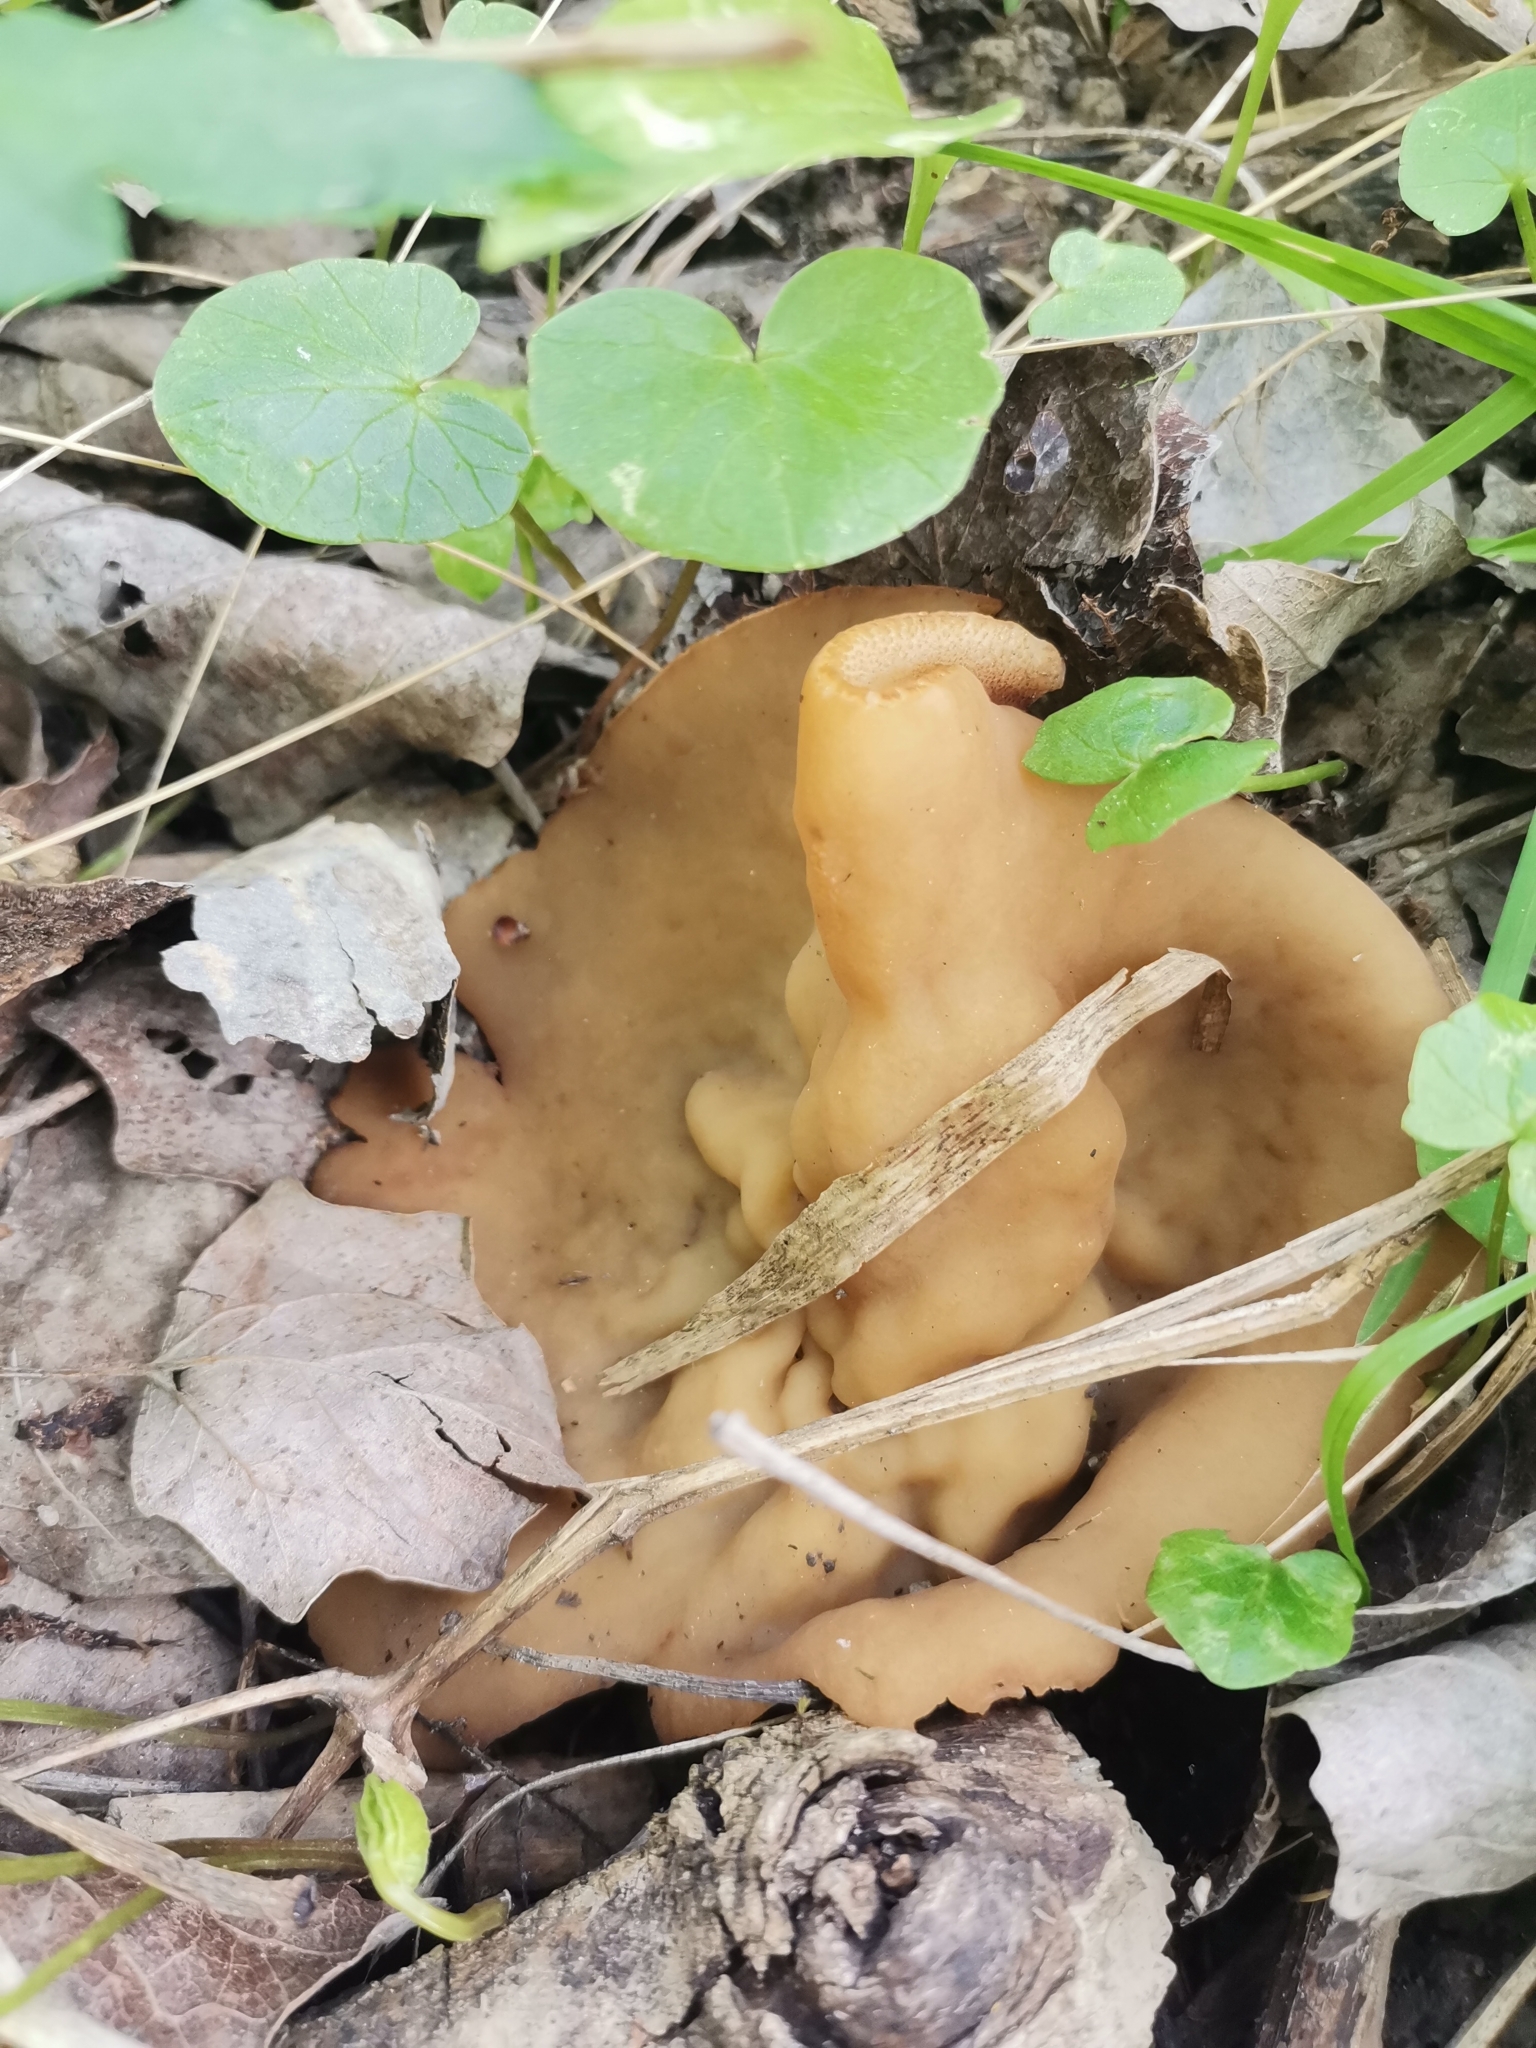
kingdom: Fungi
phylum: Ascomycota
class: Pezizomycetes
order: Pezizales
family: Morchellaceae
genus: Disciotis
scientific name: Disciotis venosa
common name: Bleach cup
